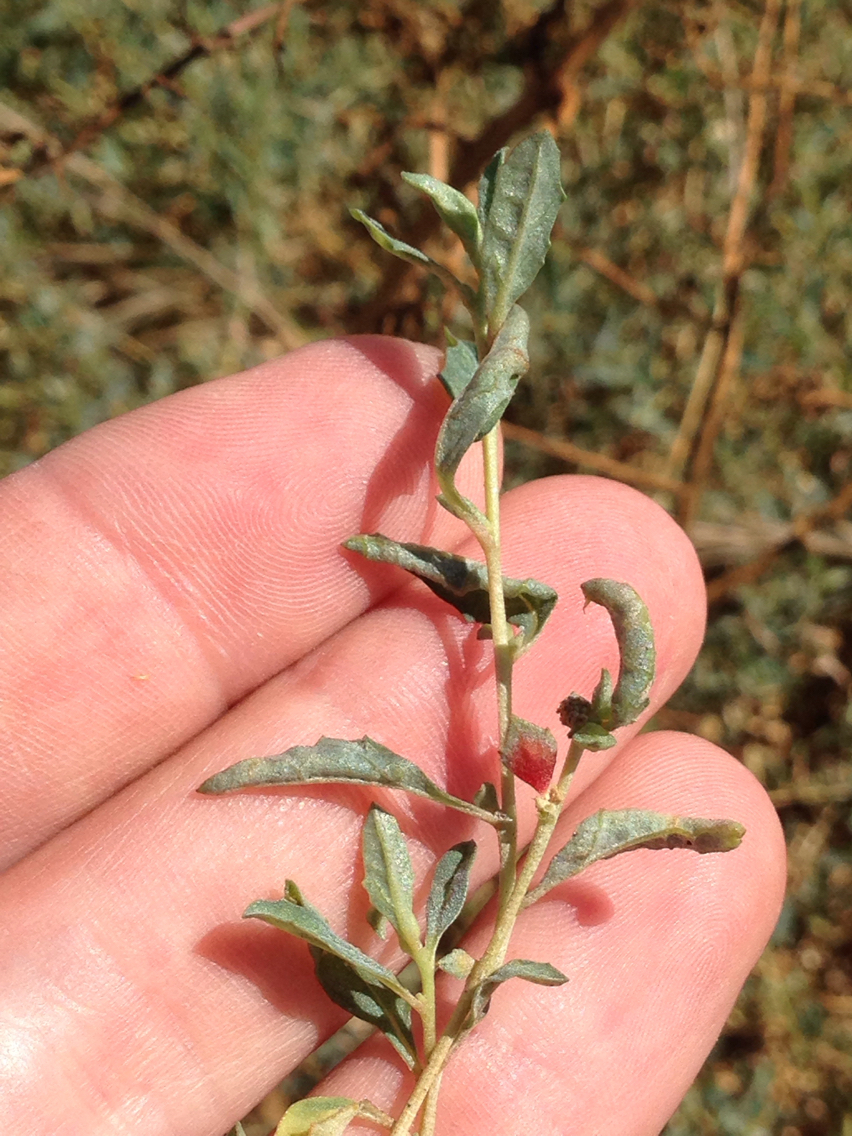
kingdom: Plantae
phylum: Tracheophyta
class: Magnoliopsida
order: Caryophyllales
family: Amaranthaceae
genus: Atriplex
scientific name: Atriplex semibaccata
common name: Australian saltbush
